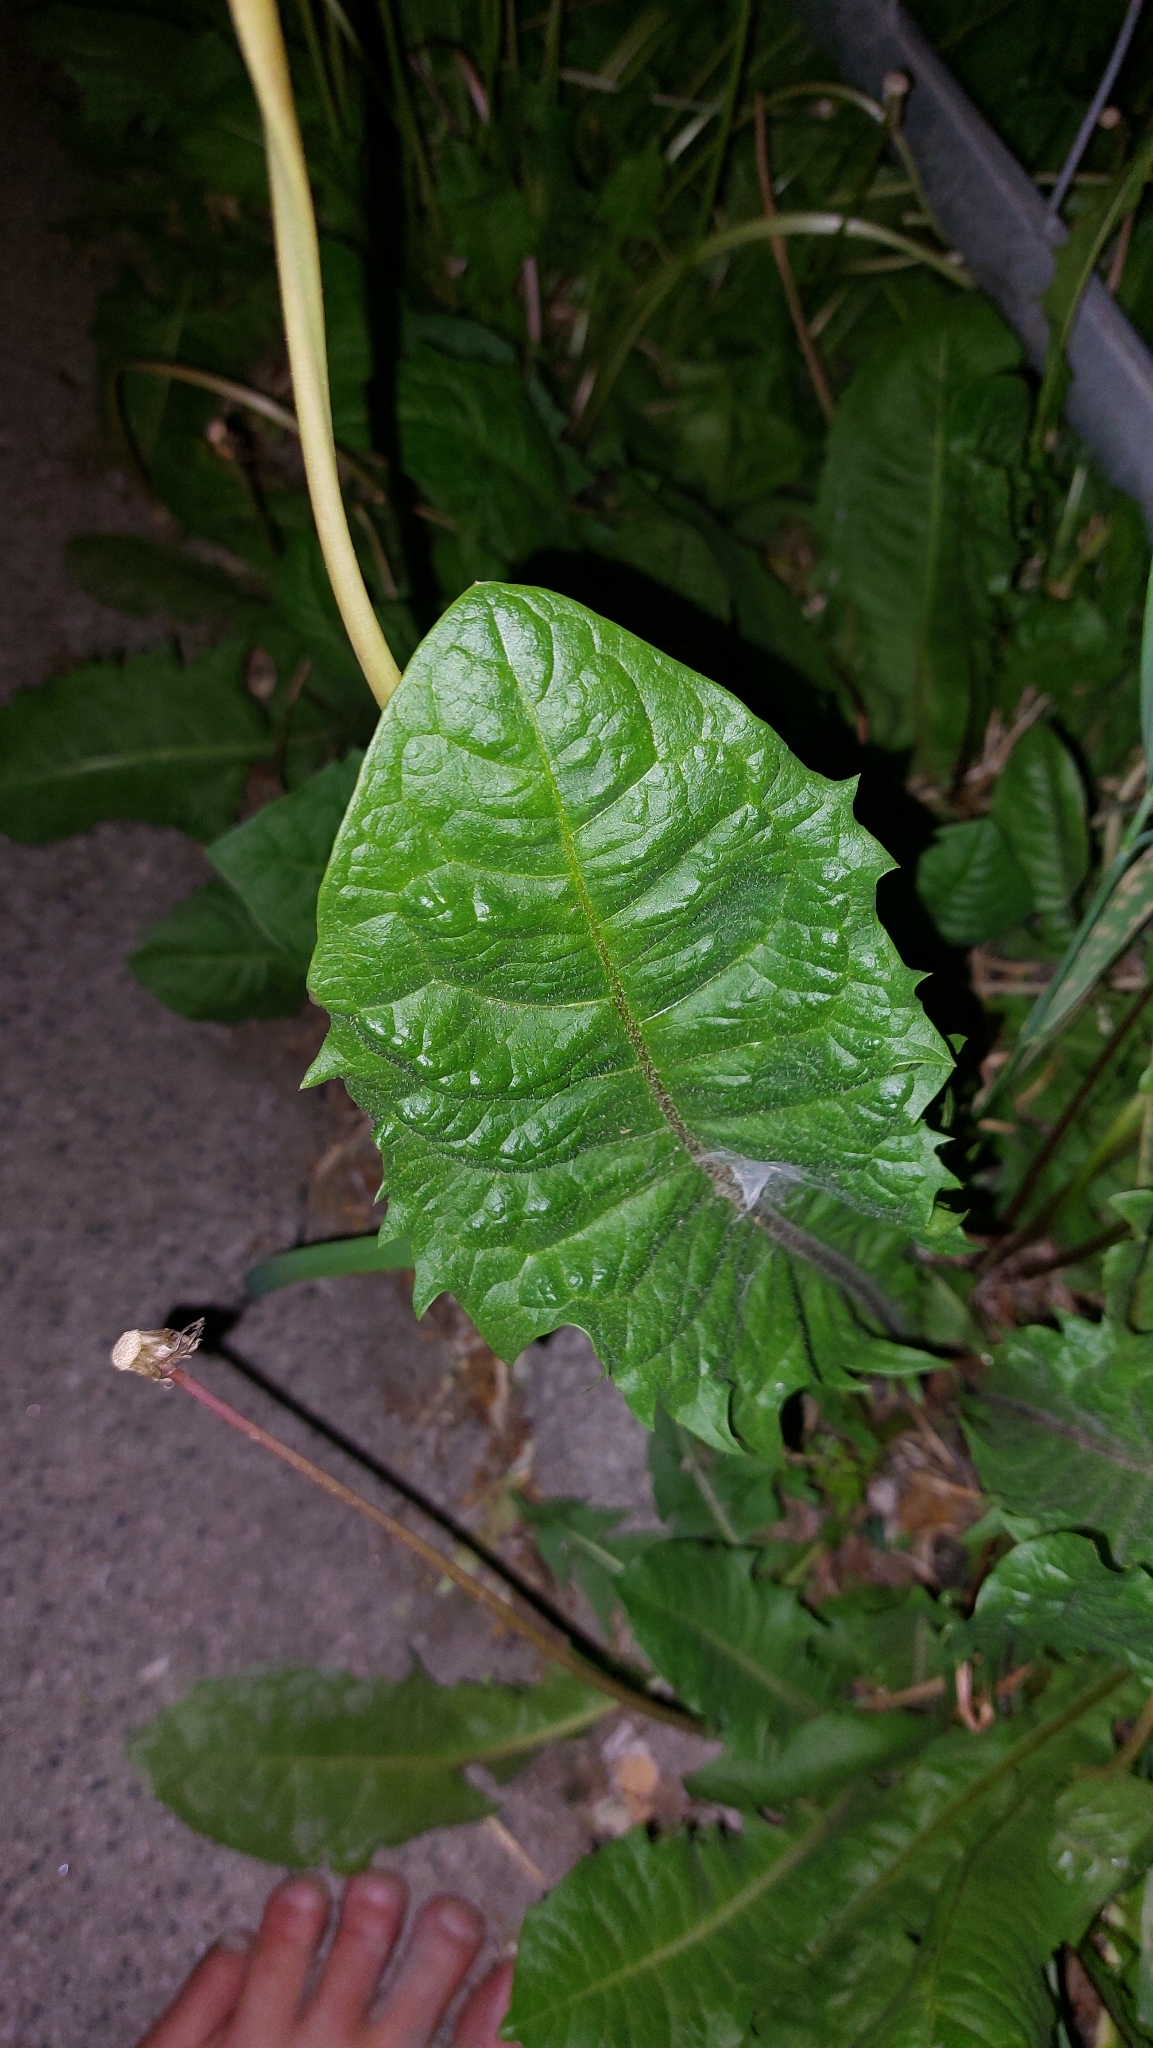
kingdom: Plantae
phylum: Tracheophyta
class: Magnoliopsida
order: Asterales
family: Asteraceae
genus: Taraxacum
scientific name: Taraxacum
